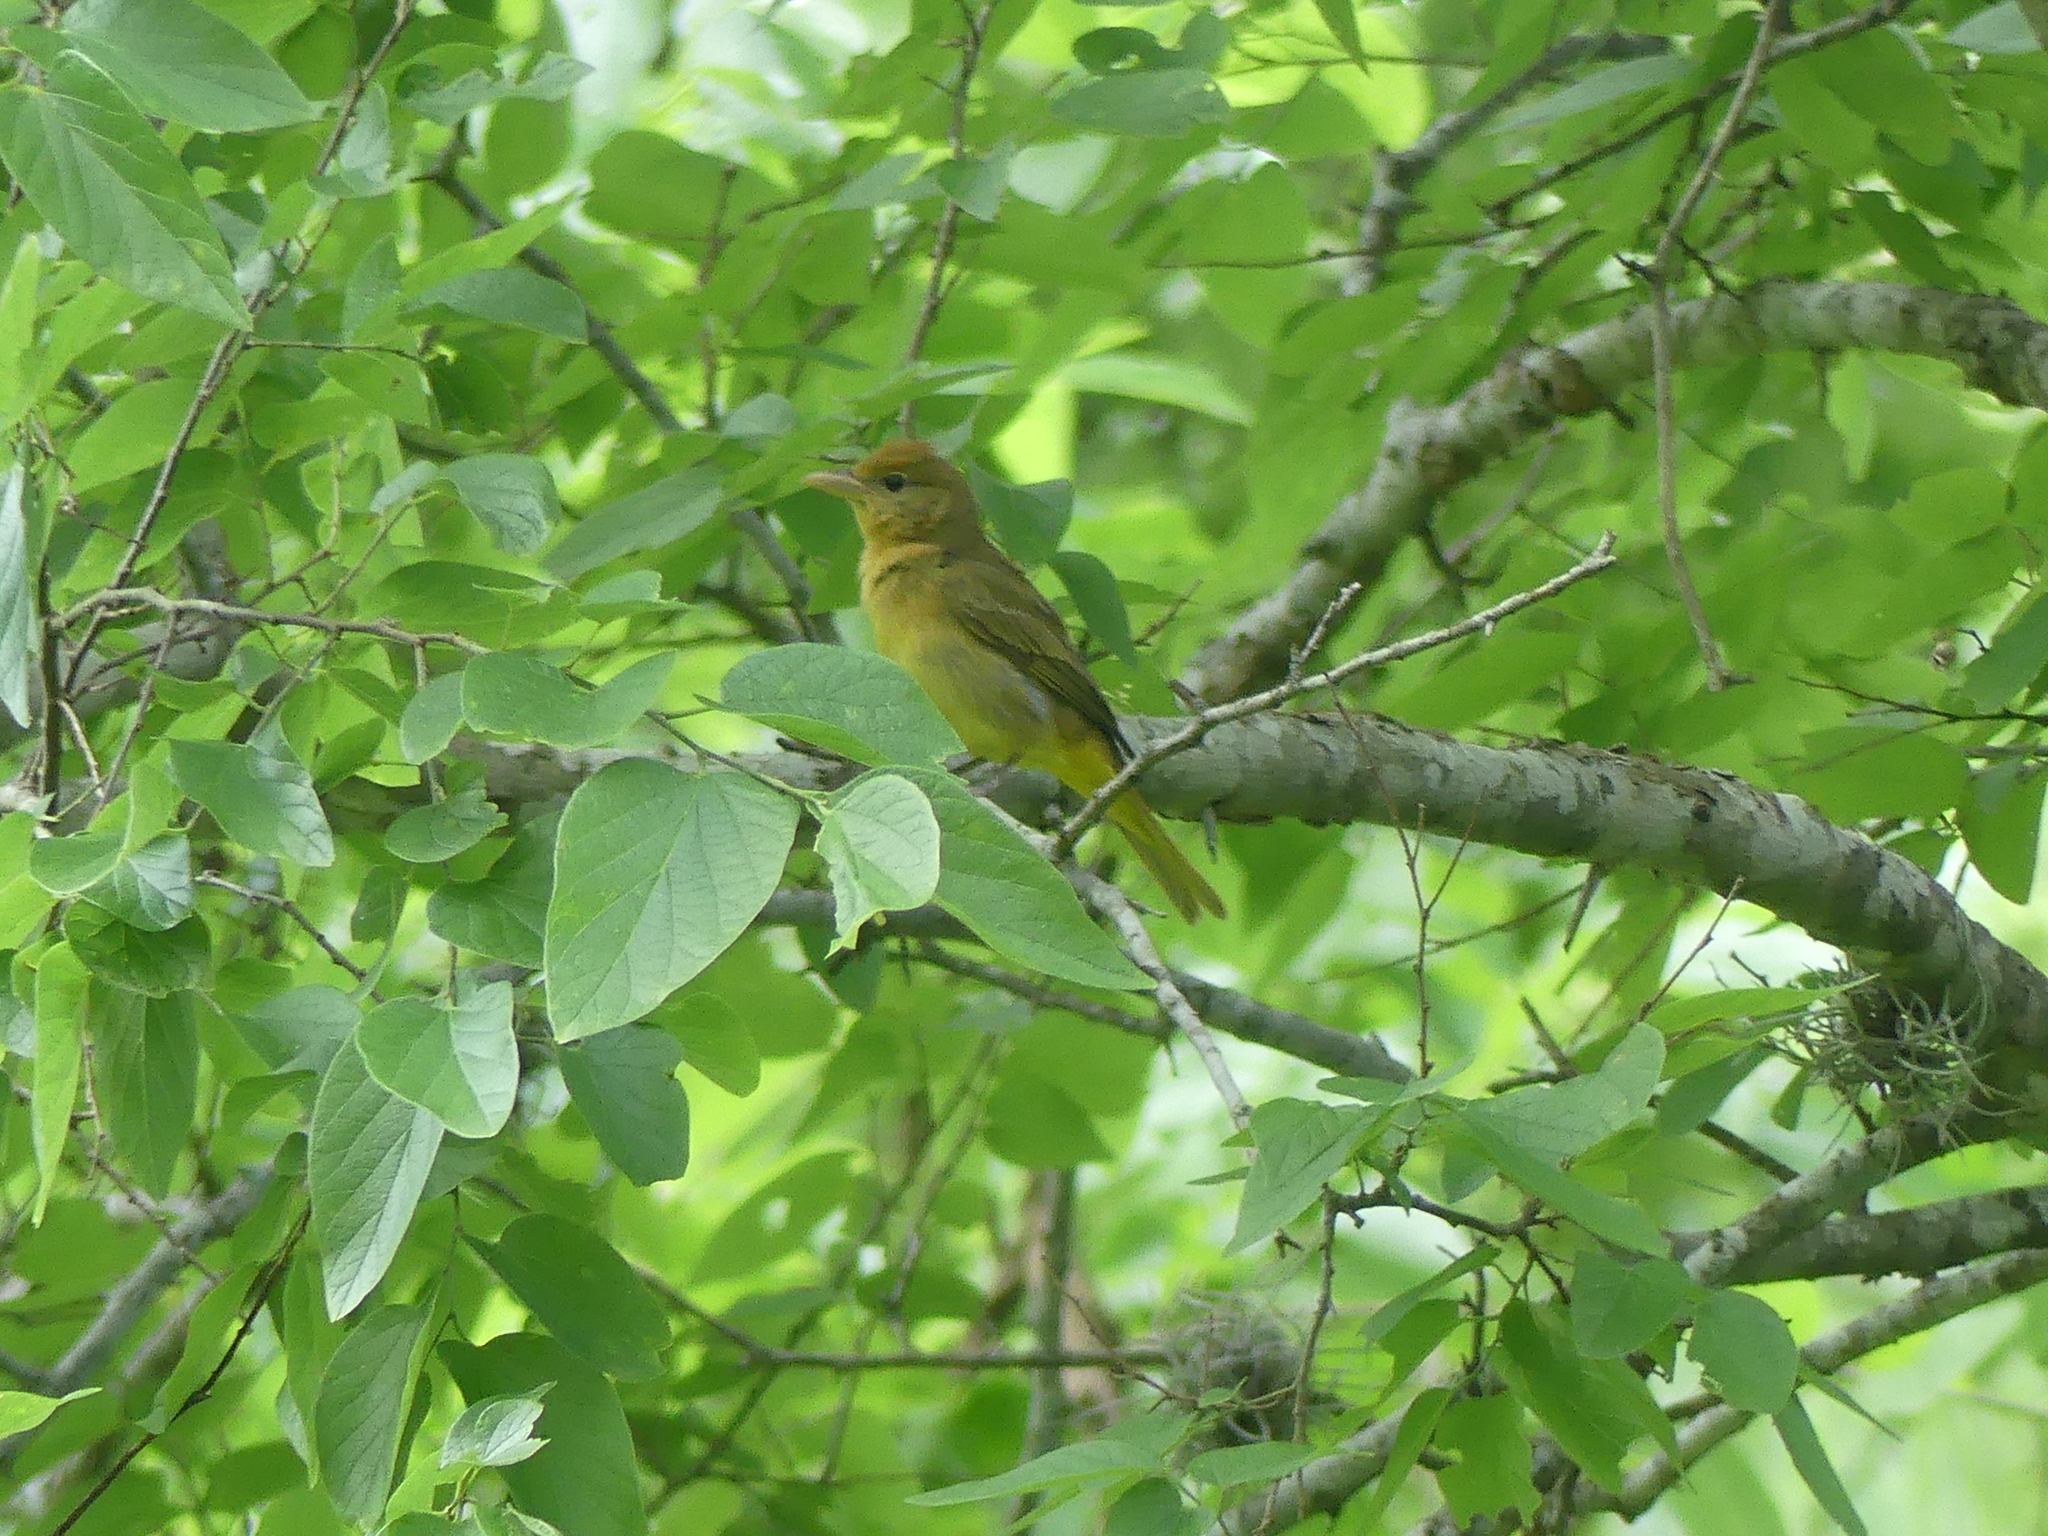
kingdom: Animalia
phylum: Chordata
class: Aves
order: Passeriformes
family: Cardinalidae
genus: Piranga
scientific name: Piranga rubra
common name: Summer tanager
